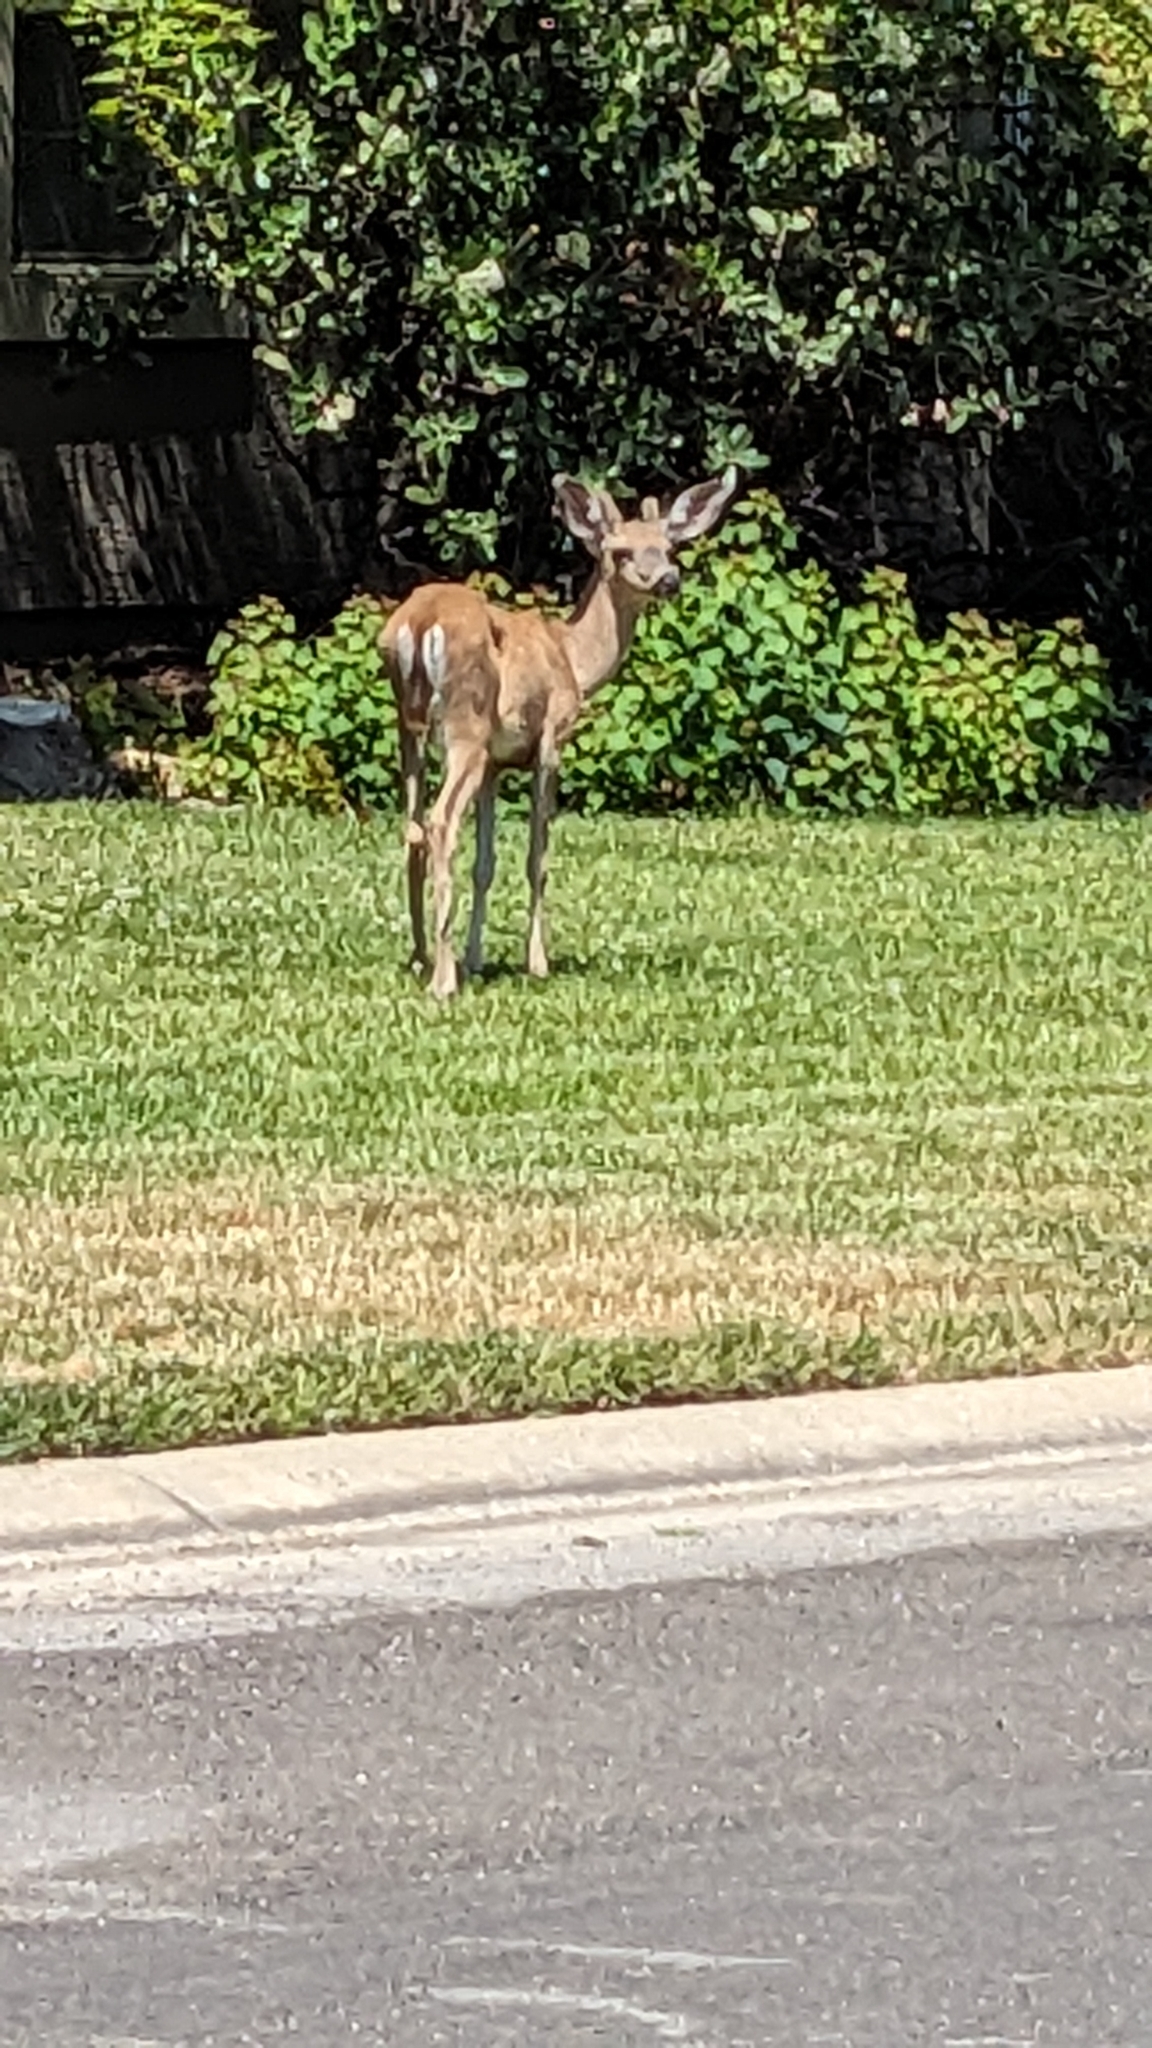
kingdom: Animalia
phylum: Chordata
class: Mammalia
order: Artiodactyla
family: Cervidae
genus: Odocoileus
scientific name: Odocoileus hemionus
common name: Mule deer
